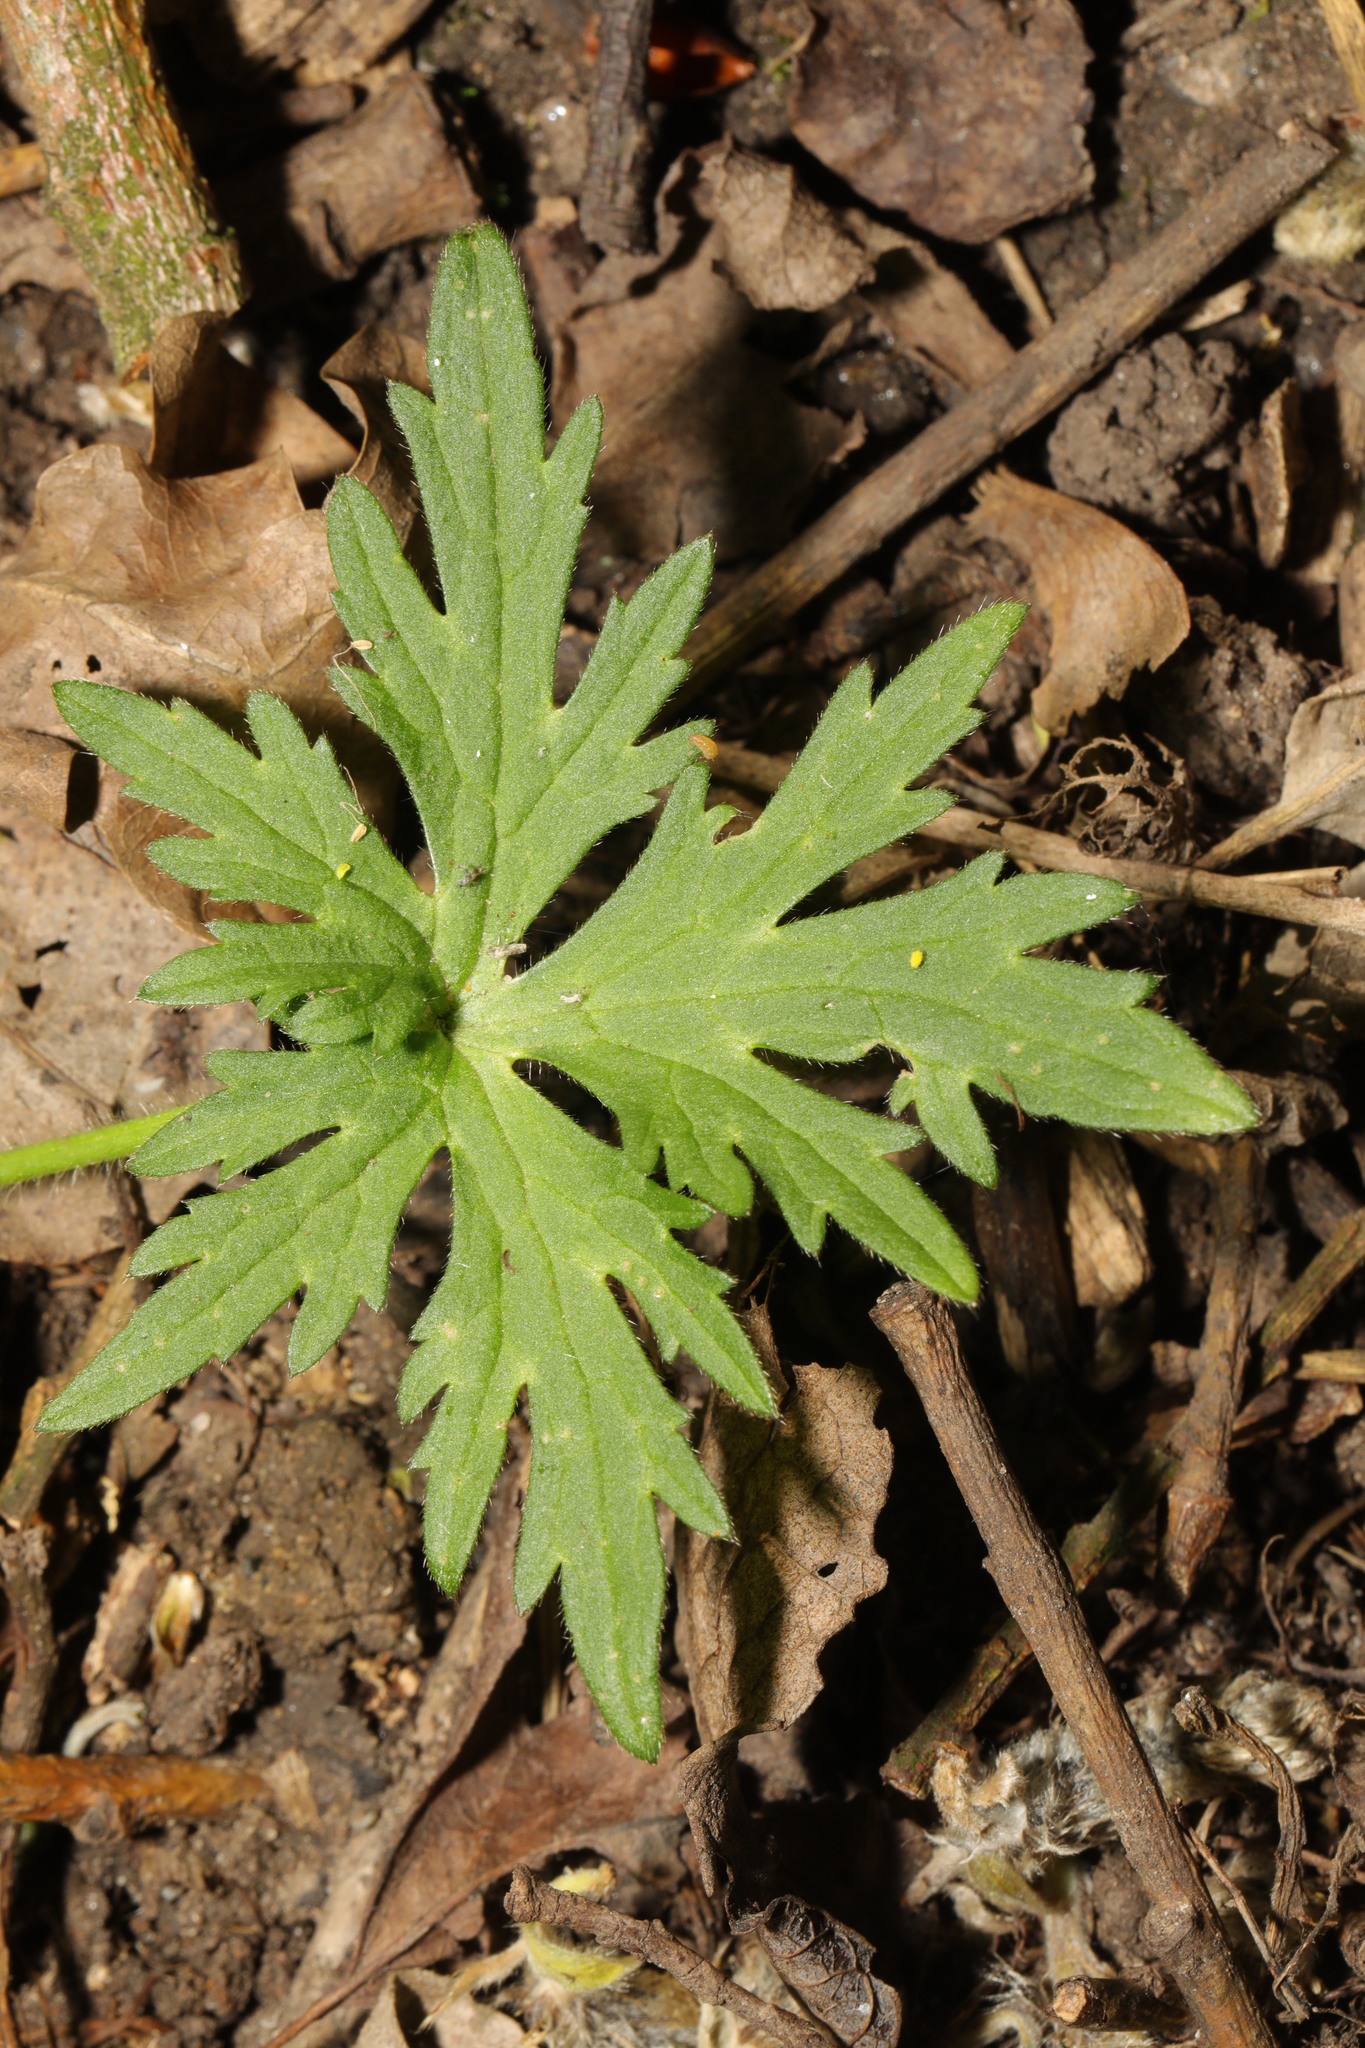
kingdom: Plantae
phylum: Tracheophyta
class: Magnoliopsida
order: Ranunculales
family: Ranunculaceae
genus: Ranunculus
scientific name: Ranunculus acris
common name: Meadow buttercup
